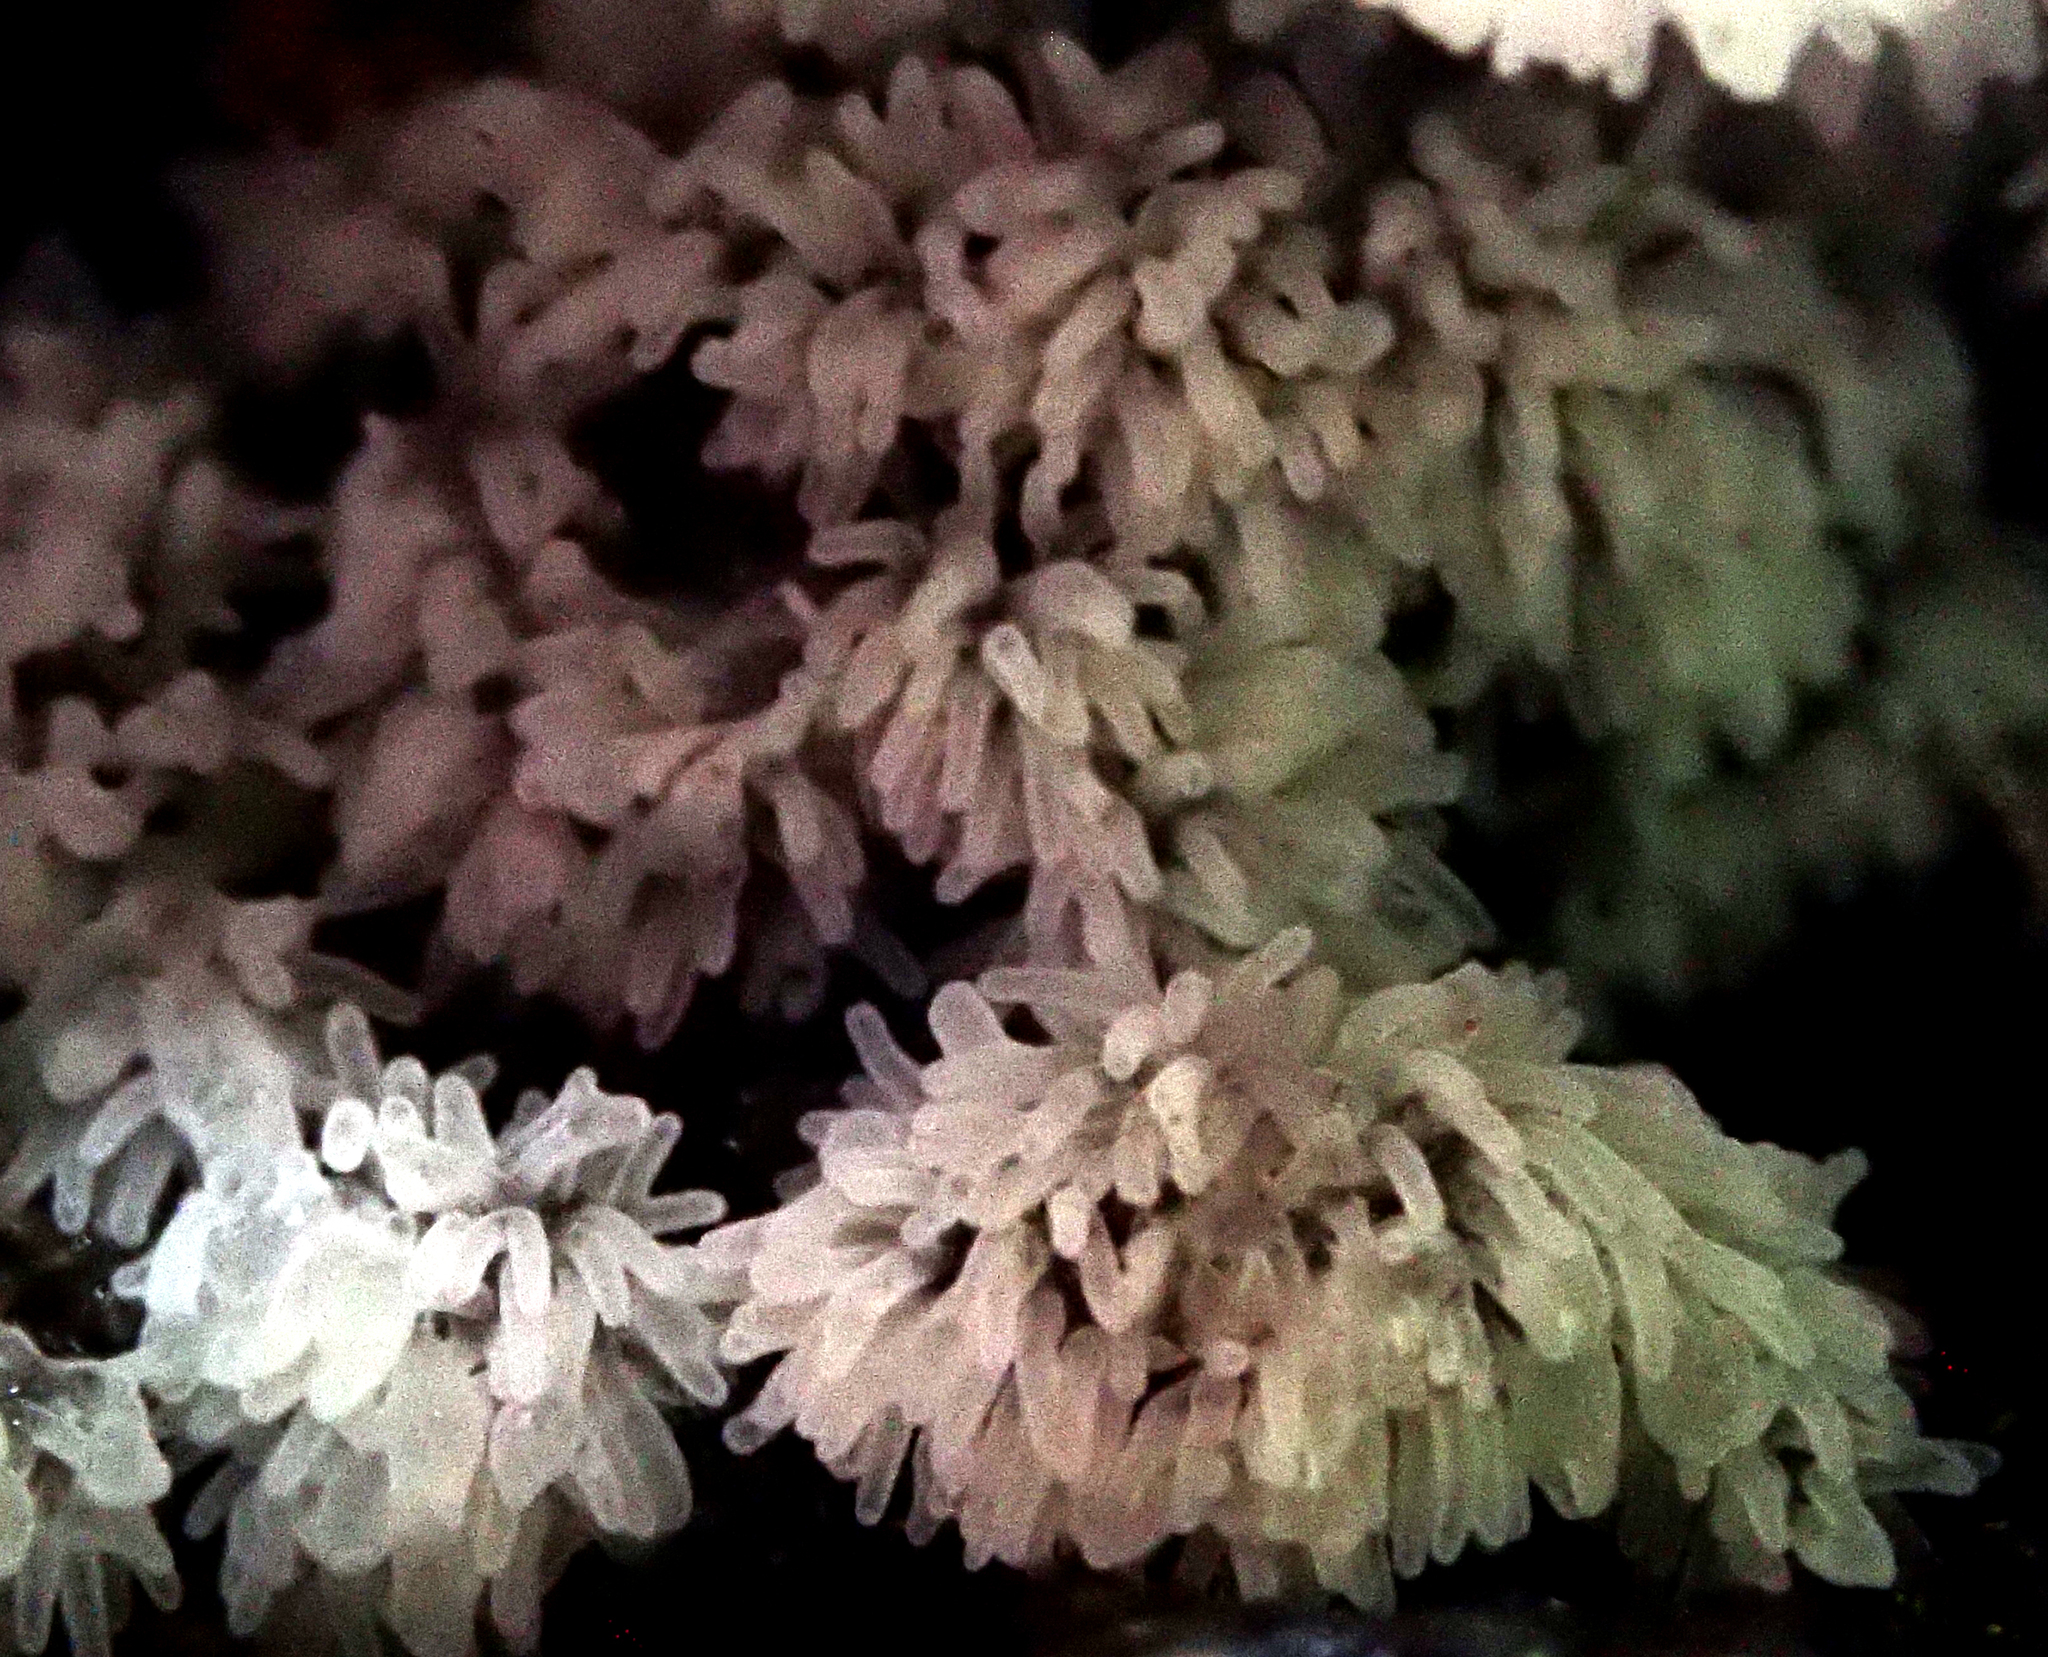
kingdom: Protozoa
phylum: Mycetozoa
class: Protosteliomycetes
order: Ceratiomyxales
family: Ceratiomyxaceae
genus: Ceratiomyxa
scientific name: Ceratiomyxa fruticulosa
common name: Honeycomb coral slime mold
